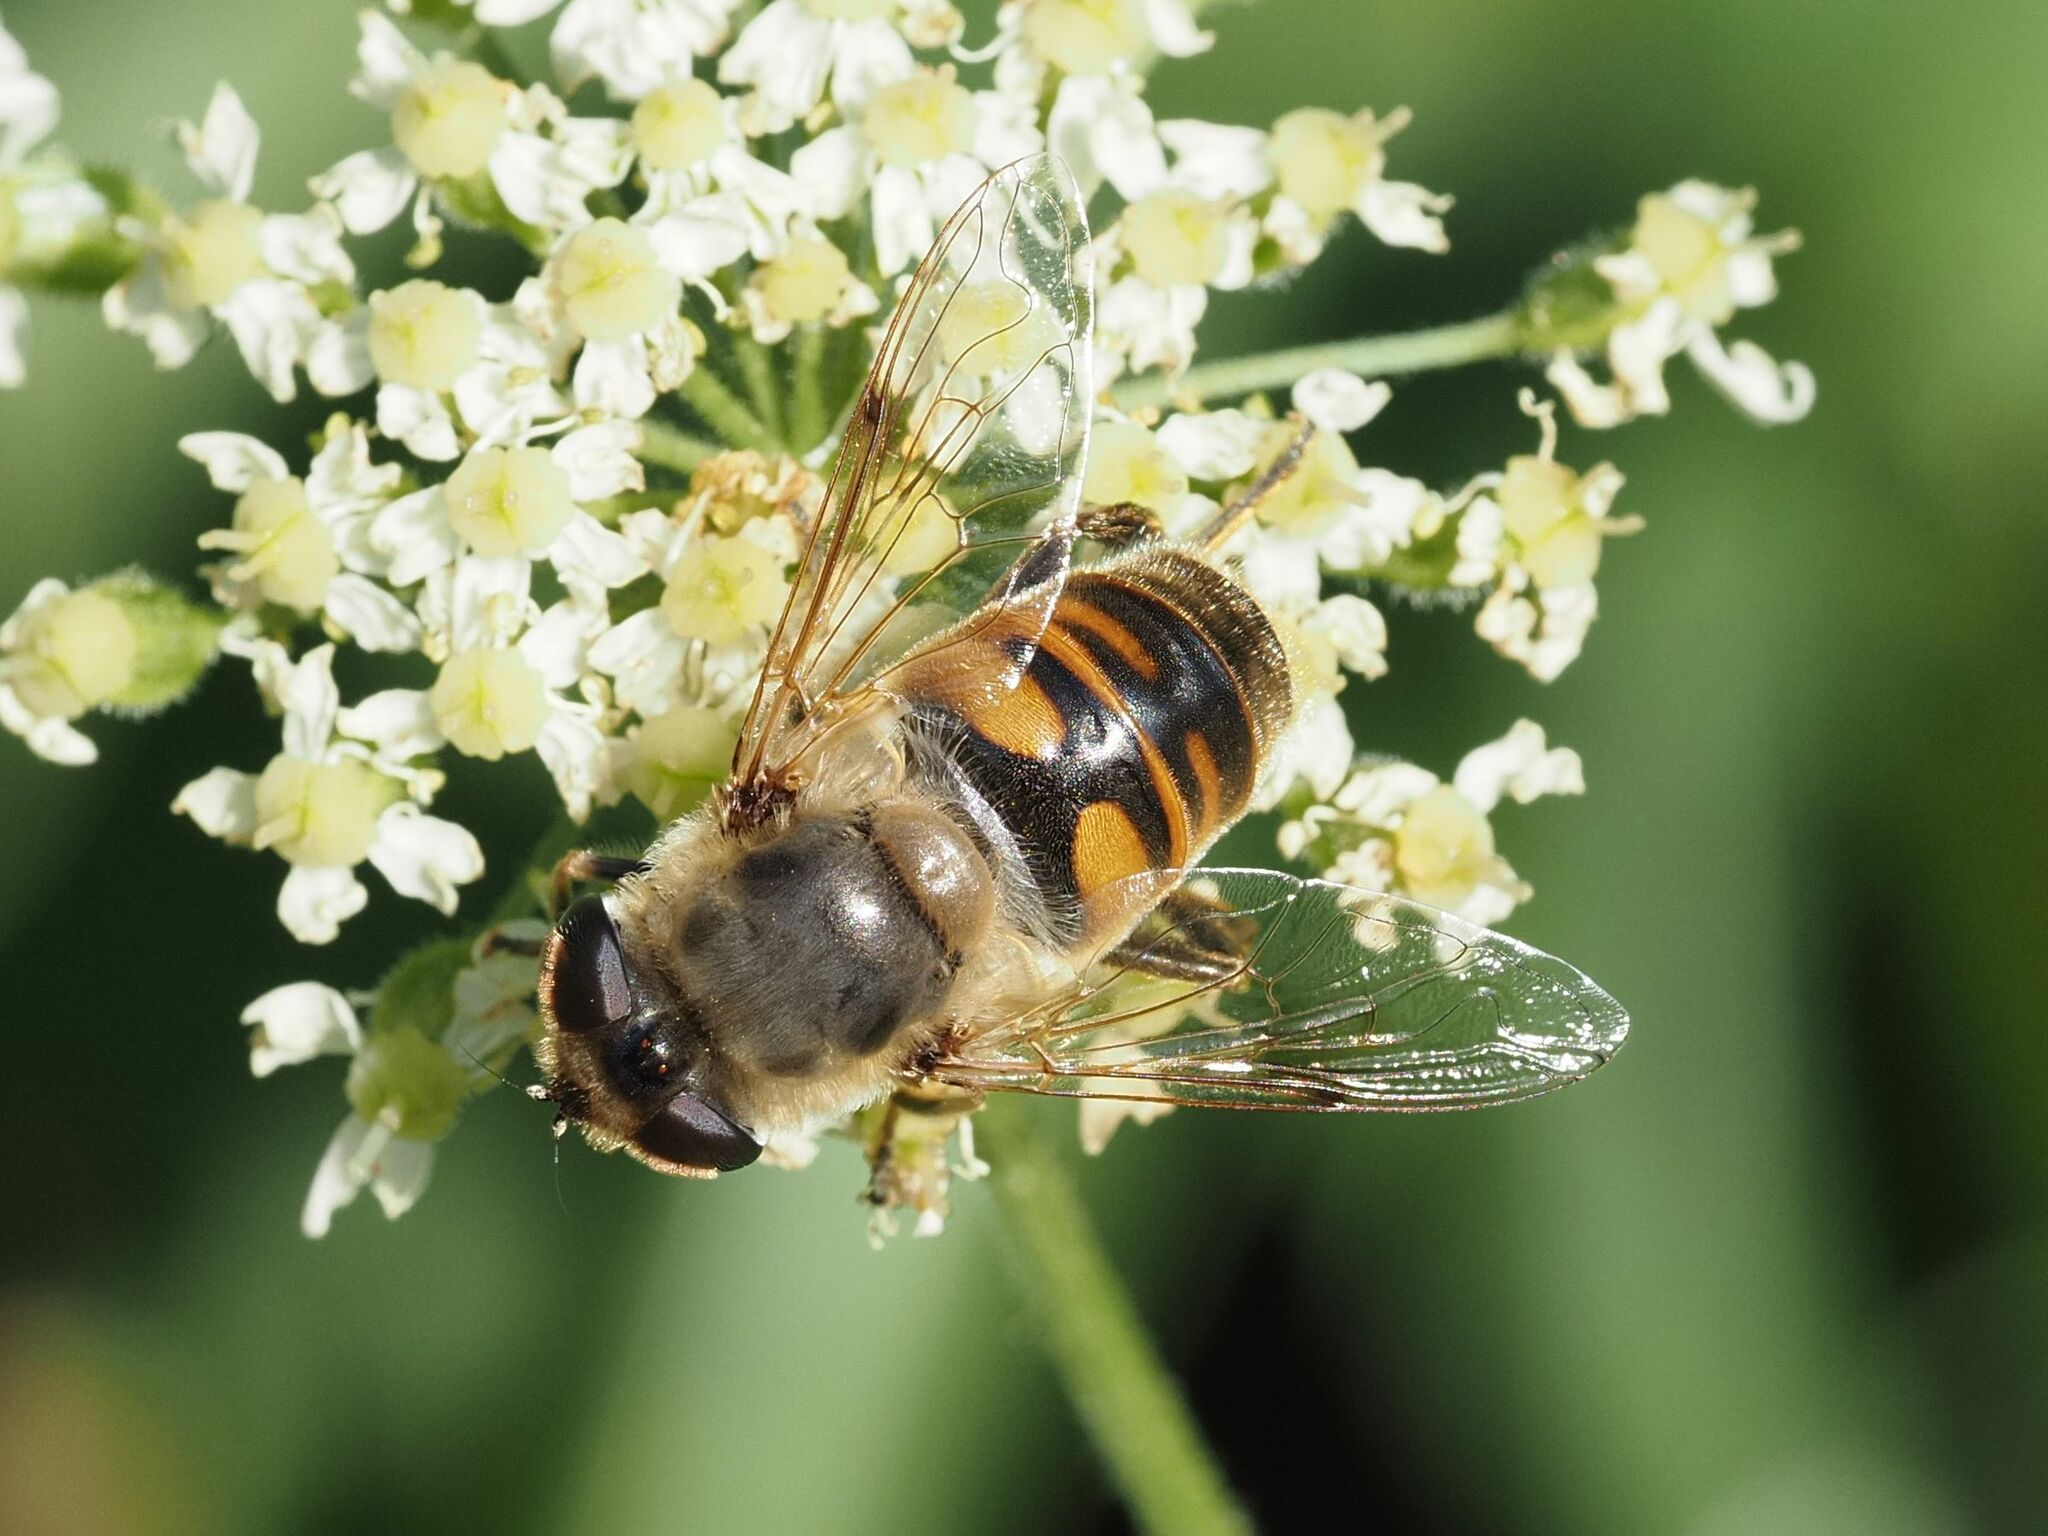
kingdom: Animalia
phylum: Arthropoda
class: Insecta
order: Diptera
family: Syrphidae
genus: Eristalis
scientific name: Eristalis tenax
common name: Drone fly
